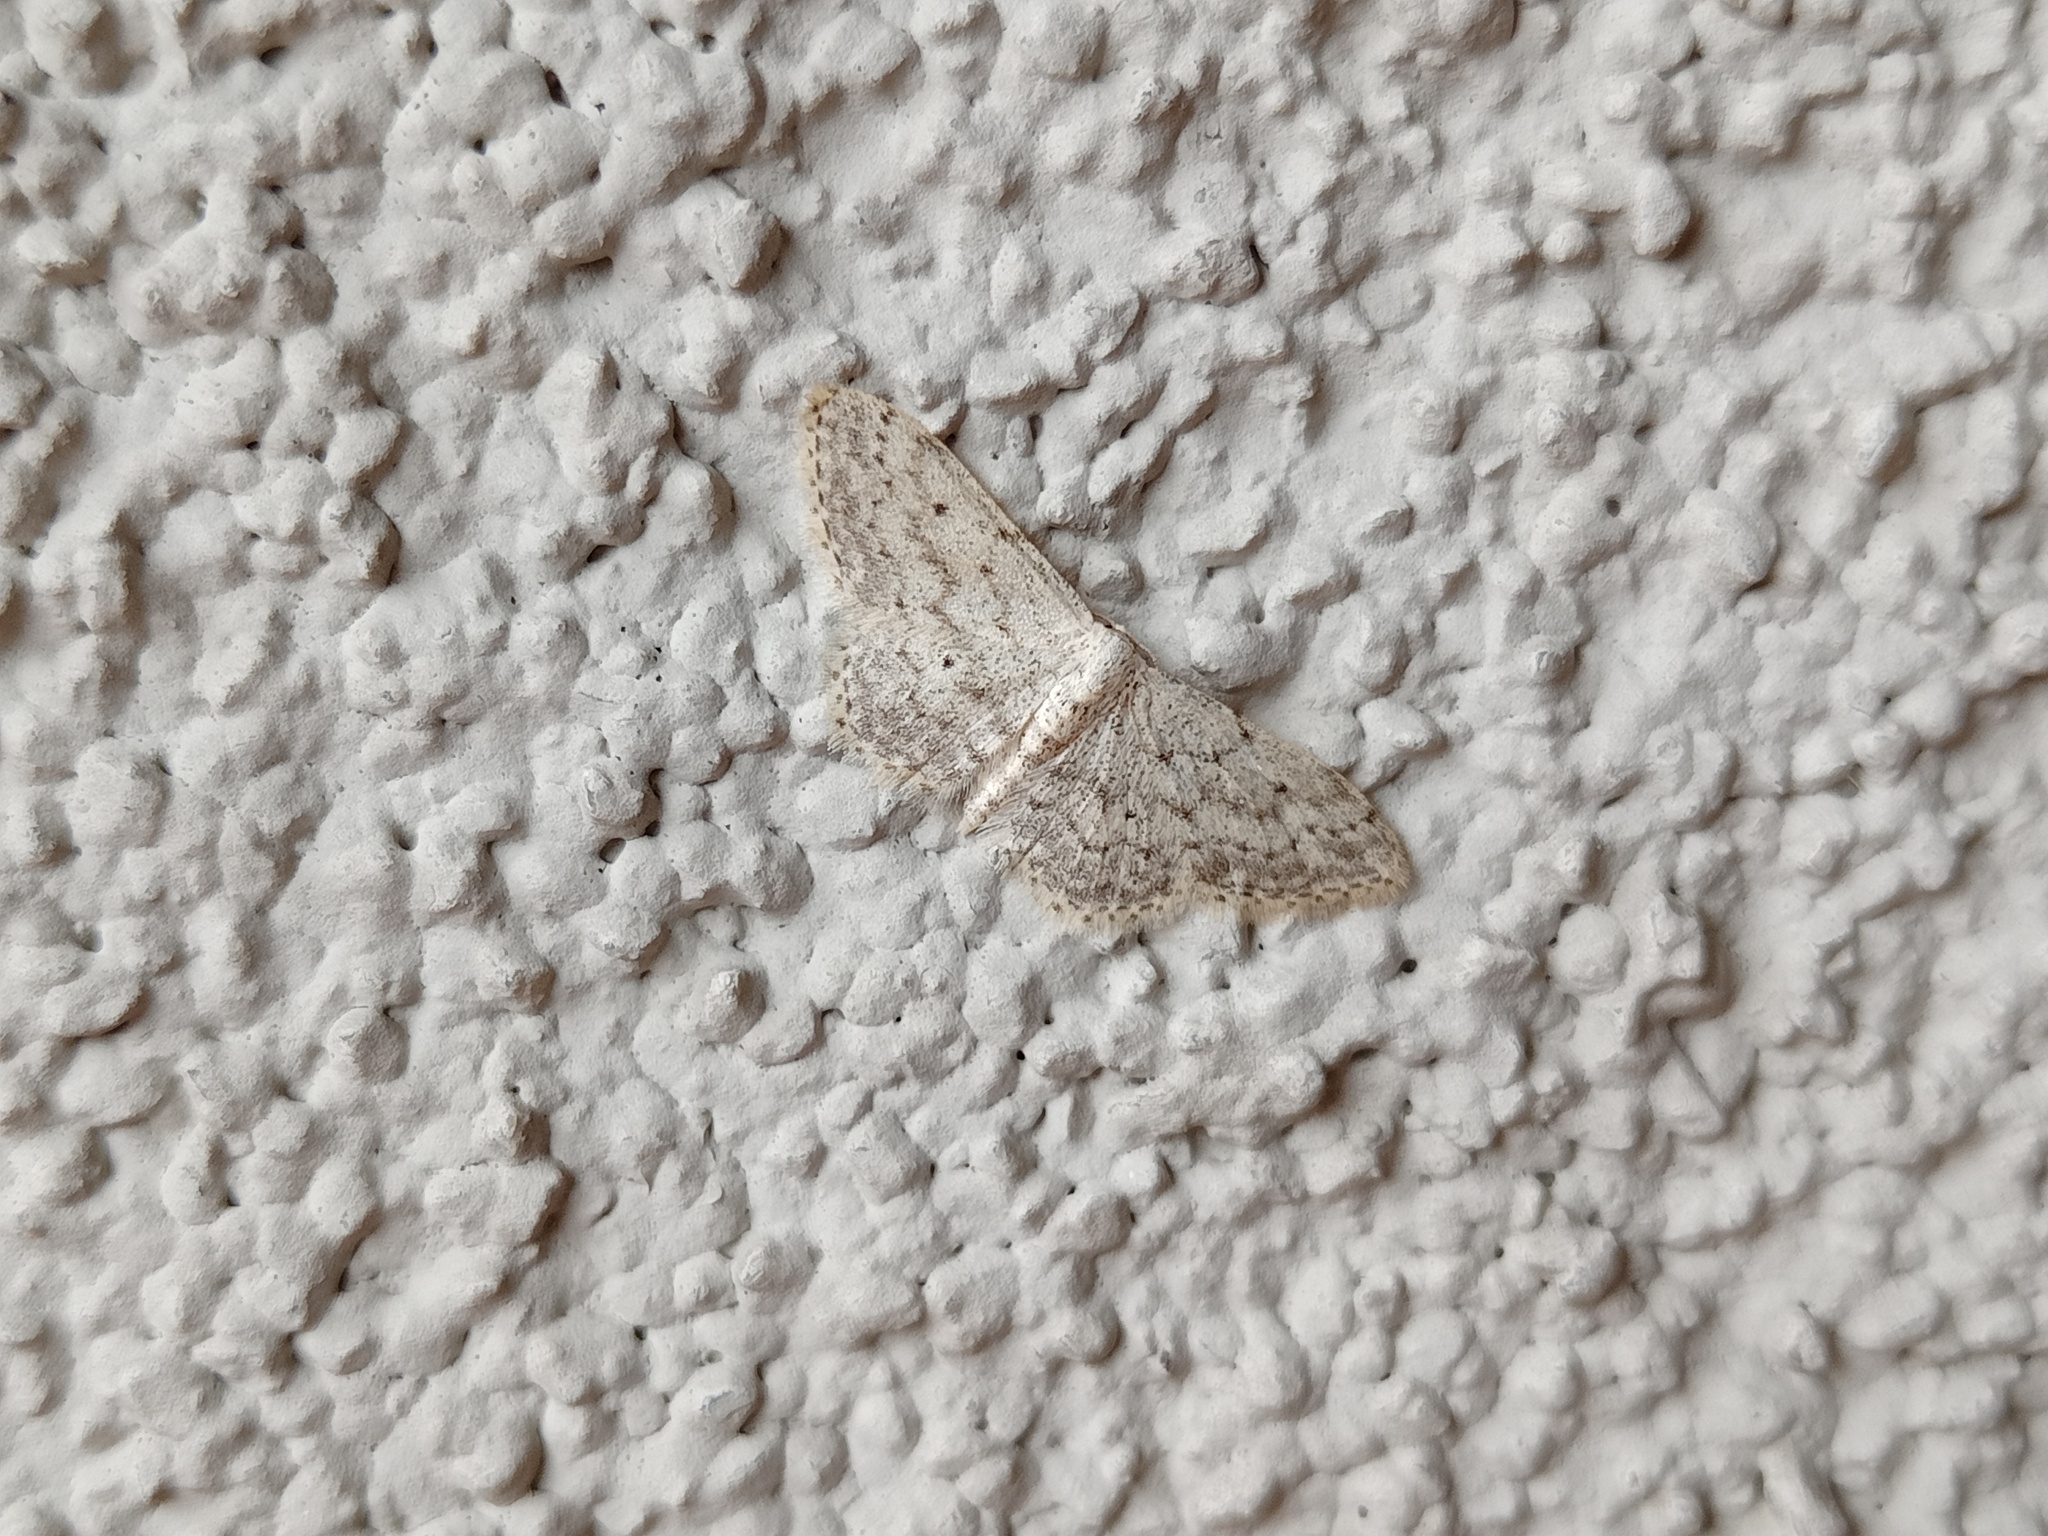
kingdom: Animalia
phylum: Arthropoda
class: Insecta
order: Lepidoptera
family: Geometridae
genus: Idaea
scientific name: Idaea seriata
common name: Small dusty wave
